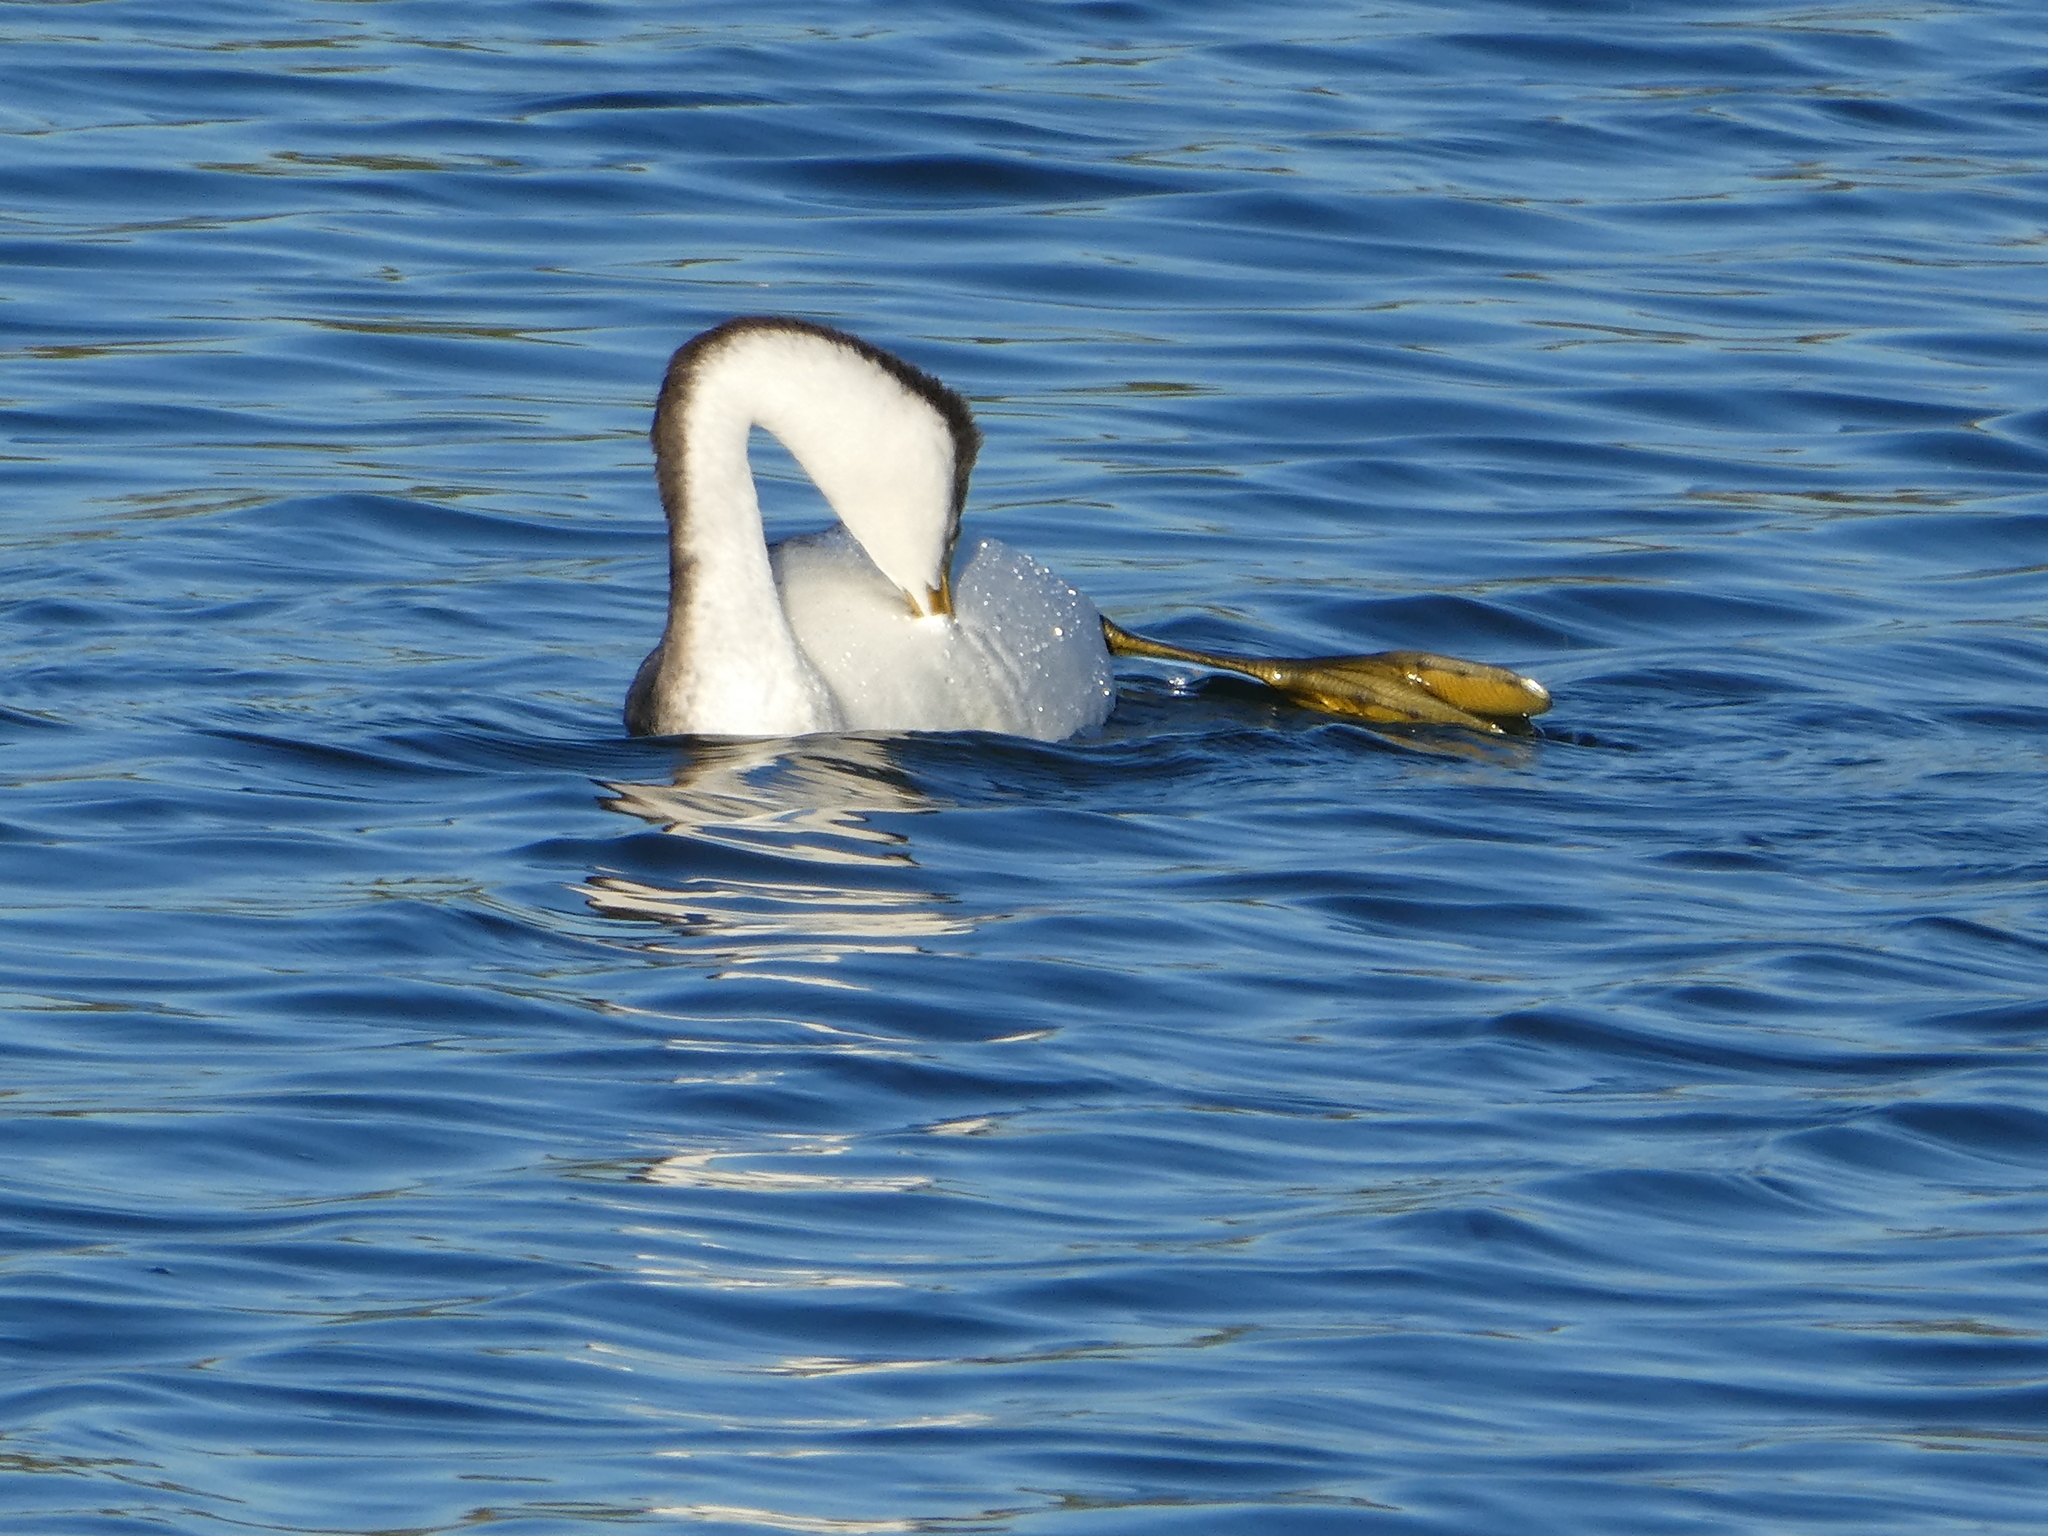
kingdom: Animalia
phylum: Chordata
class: Aves
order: Podicipediformes
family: Podicipedidae
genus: Aechmophorus
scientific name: Aechmophorus occidentalis
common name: Western grebe
